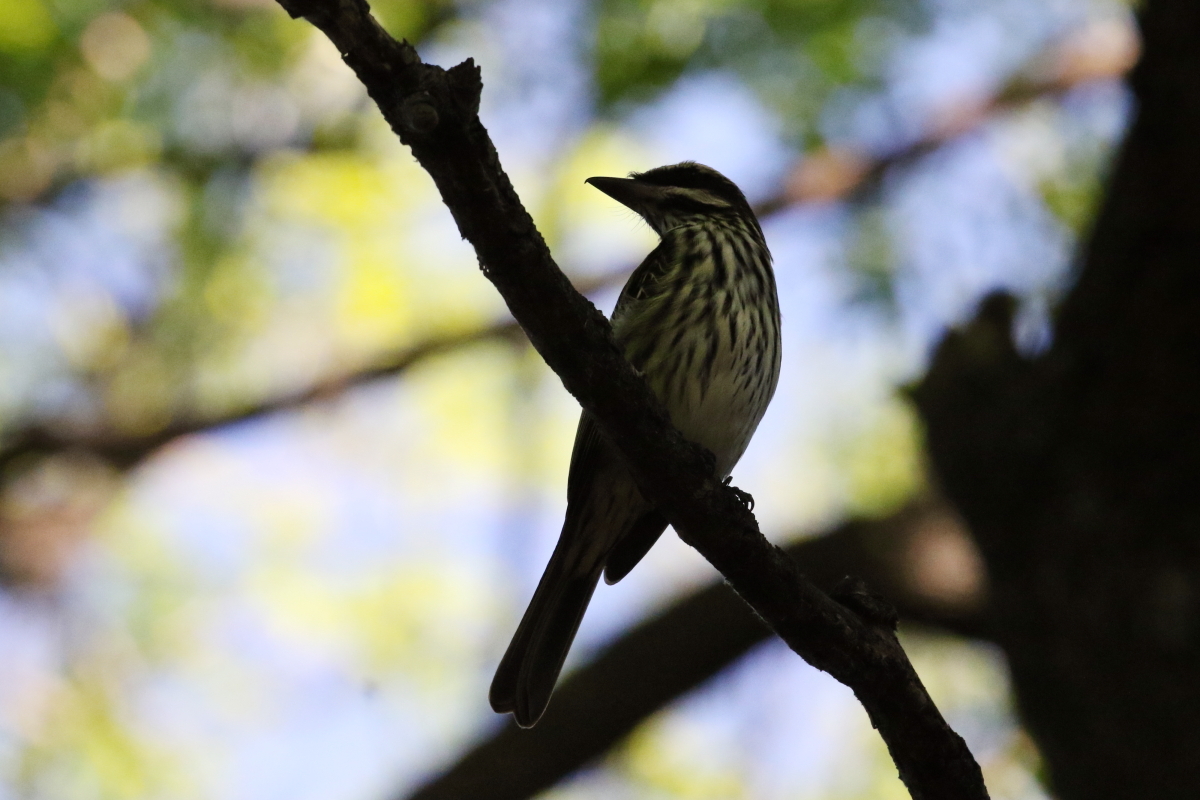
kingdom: Animalia
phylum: Chordata
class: Aves
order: Passeriformes
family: Tyrannidae
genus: Myiodynastes
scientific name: Myiodynastes maculatus
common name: Streaked flycatcher
